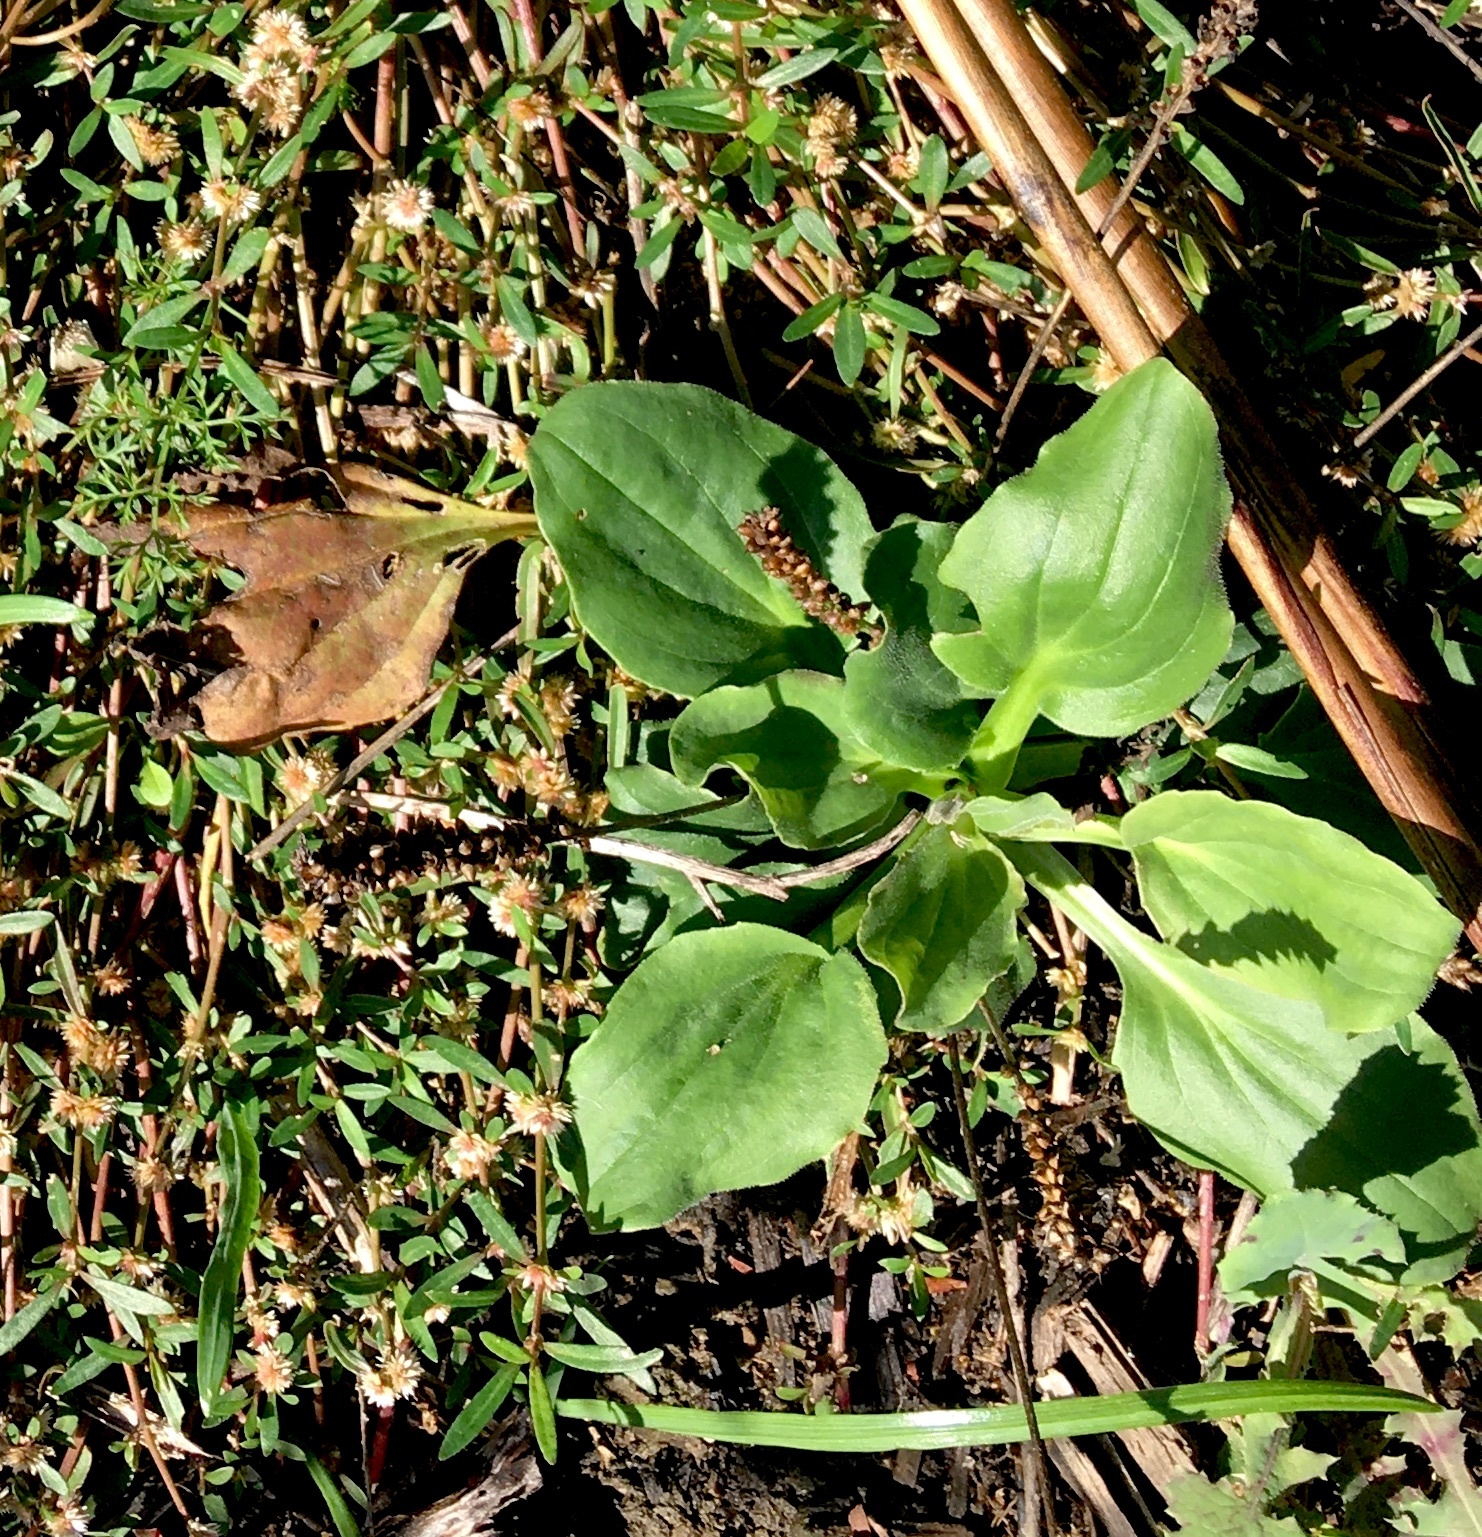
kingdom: Plantae
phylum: Tracheophyta
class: Magnoliopsida
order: Lamiales
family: Plantaginaceae
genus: Plantago
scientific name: Plantago major
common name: Common plantain
